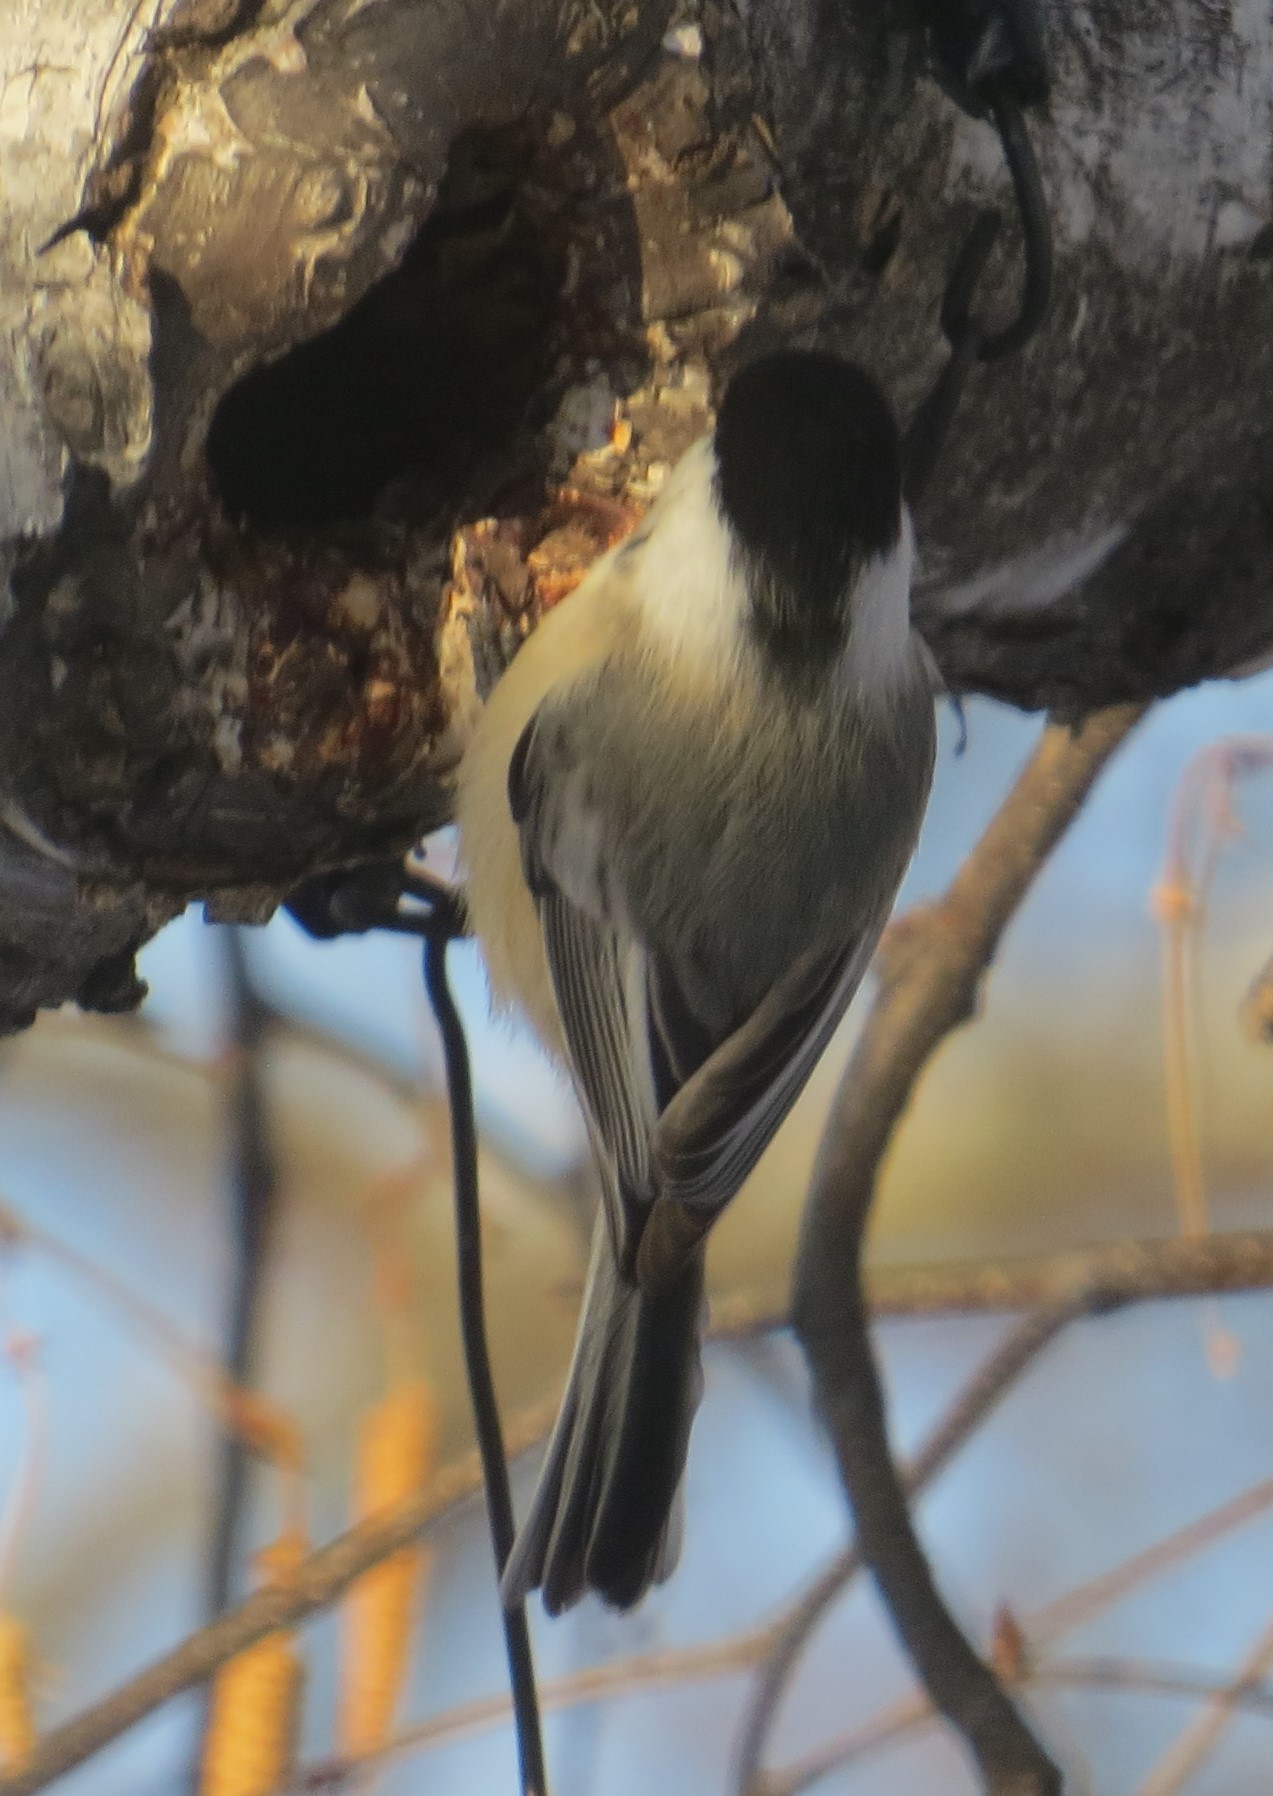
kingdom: Animalia
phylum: Chordata
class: Aves
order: Passeriformes
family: Paridae
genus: Poecile
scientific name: Poecile atricapillus
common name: Black-capped chickadee
